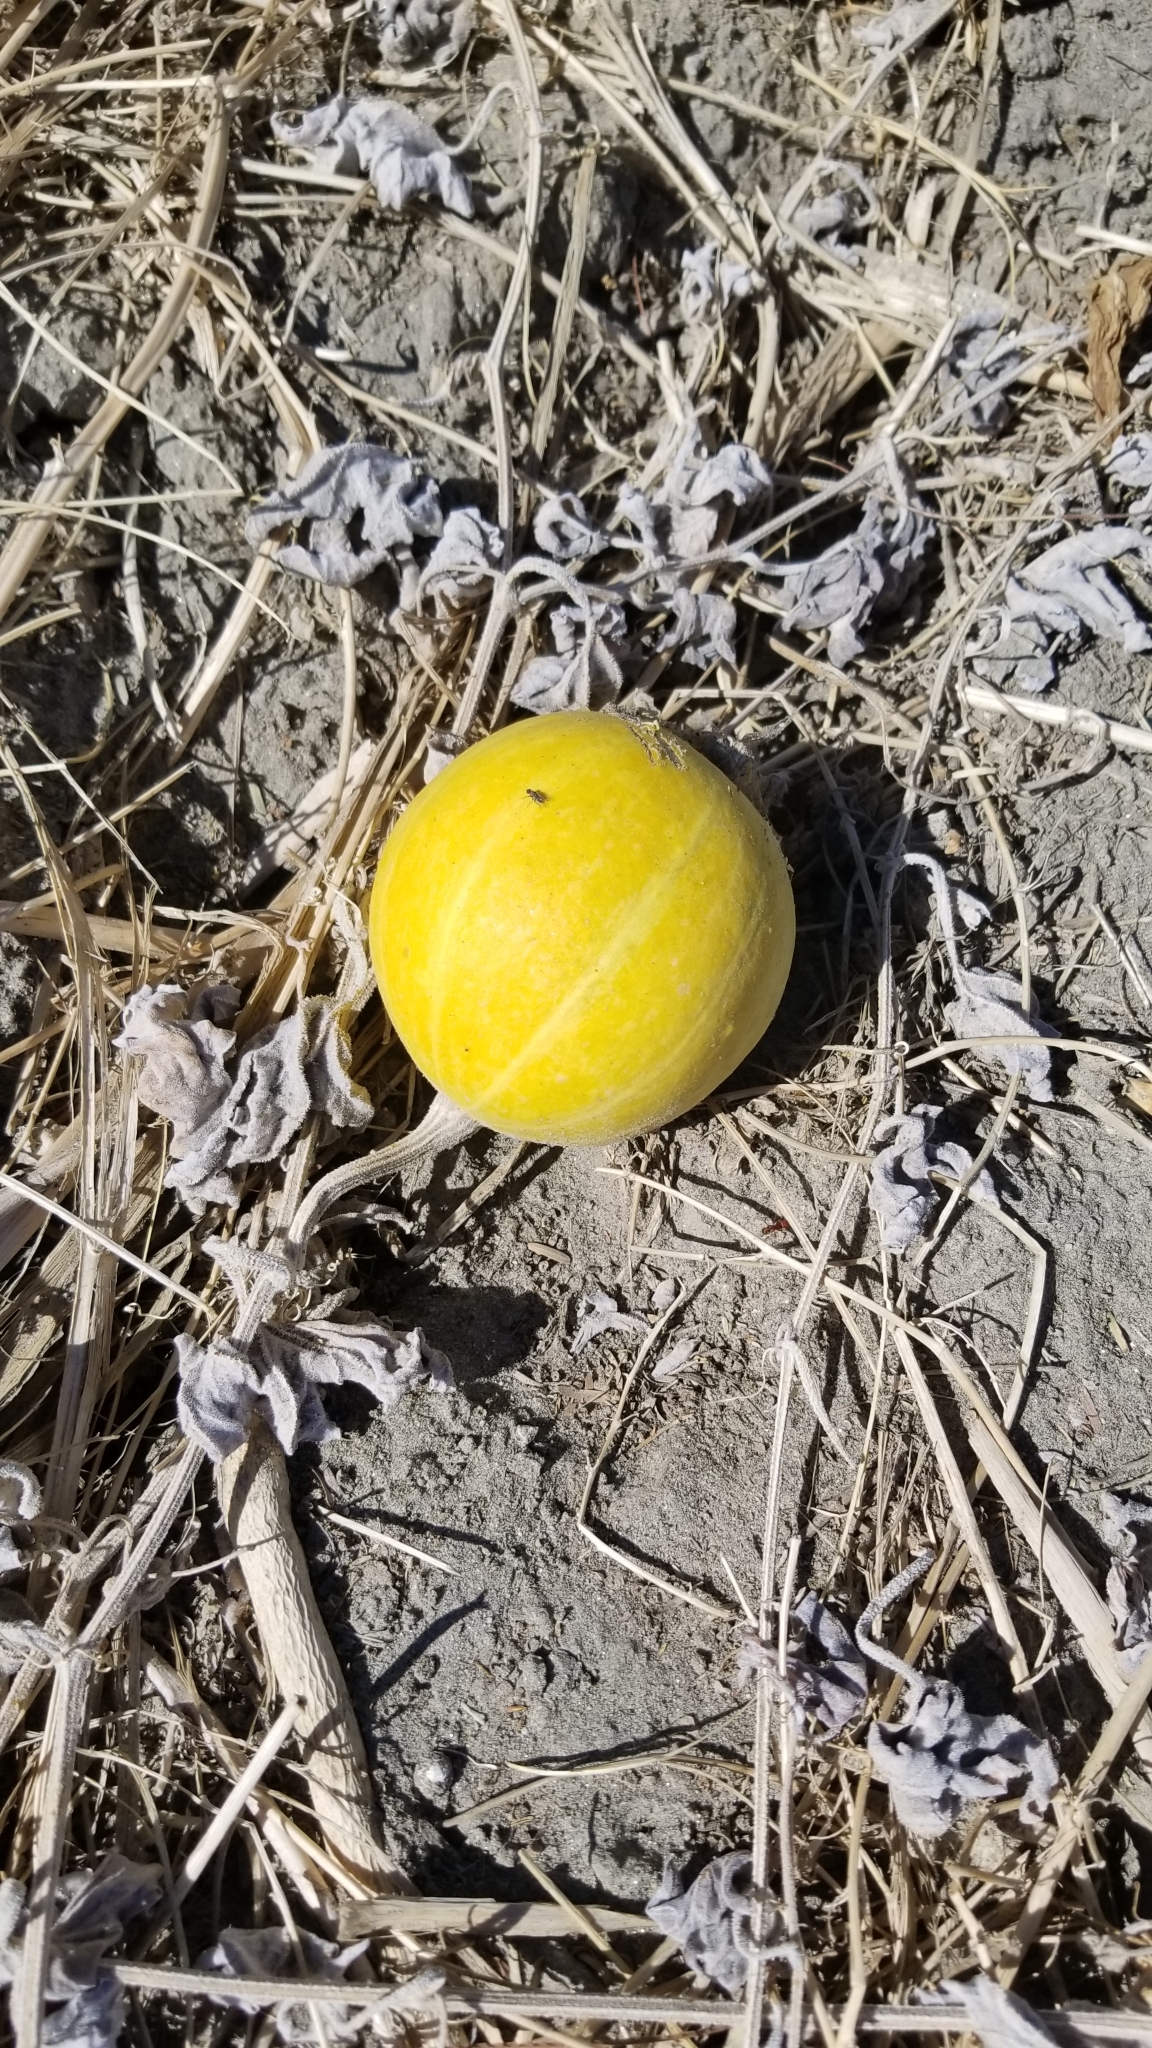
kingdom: Plantae
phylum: Tracheophyta
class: Magnoliopsida
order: Cucurbitales
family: Cucurbitaceae
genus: Cucurbita
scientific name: Cucurbita palmata
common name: Coyote-melon
